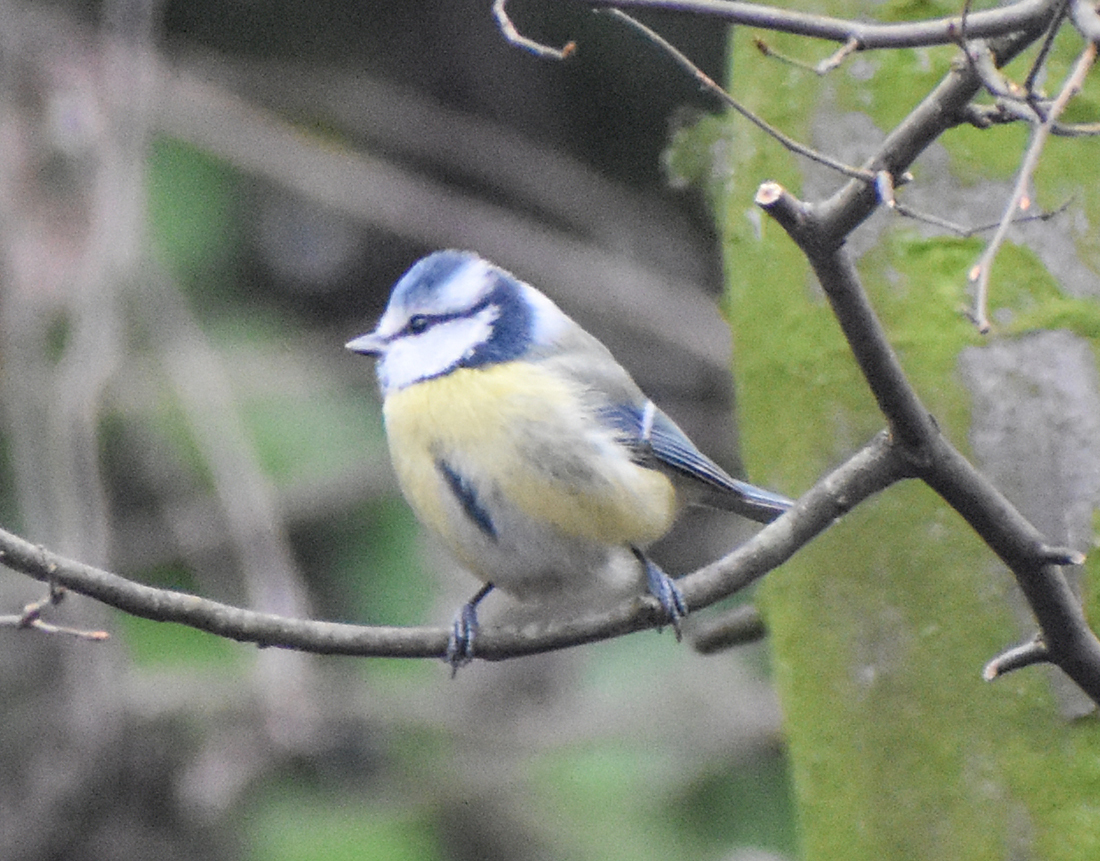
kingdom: Animalia
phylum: Chordata
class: Aves
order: Passeriformes
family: Paridae
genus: Cyanistes
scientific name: Cyanistes caeruleus
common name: Eurasian blue tit
